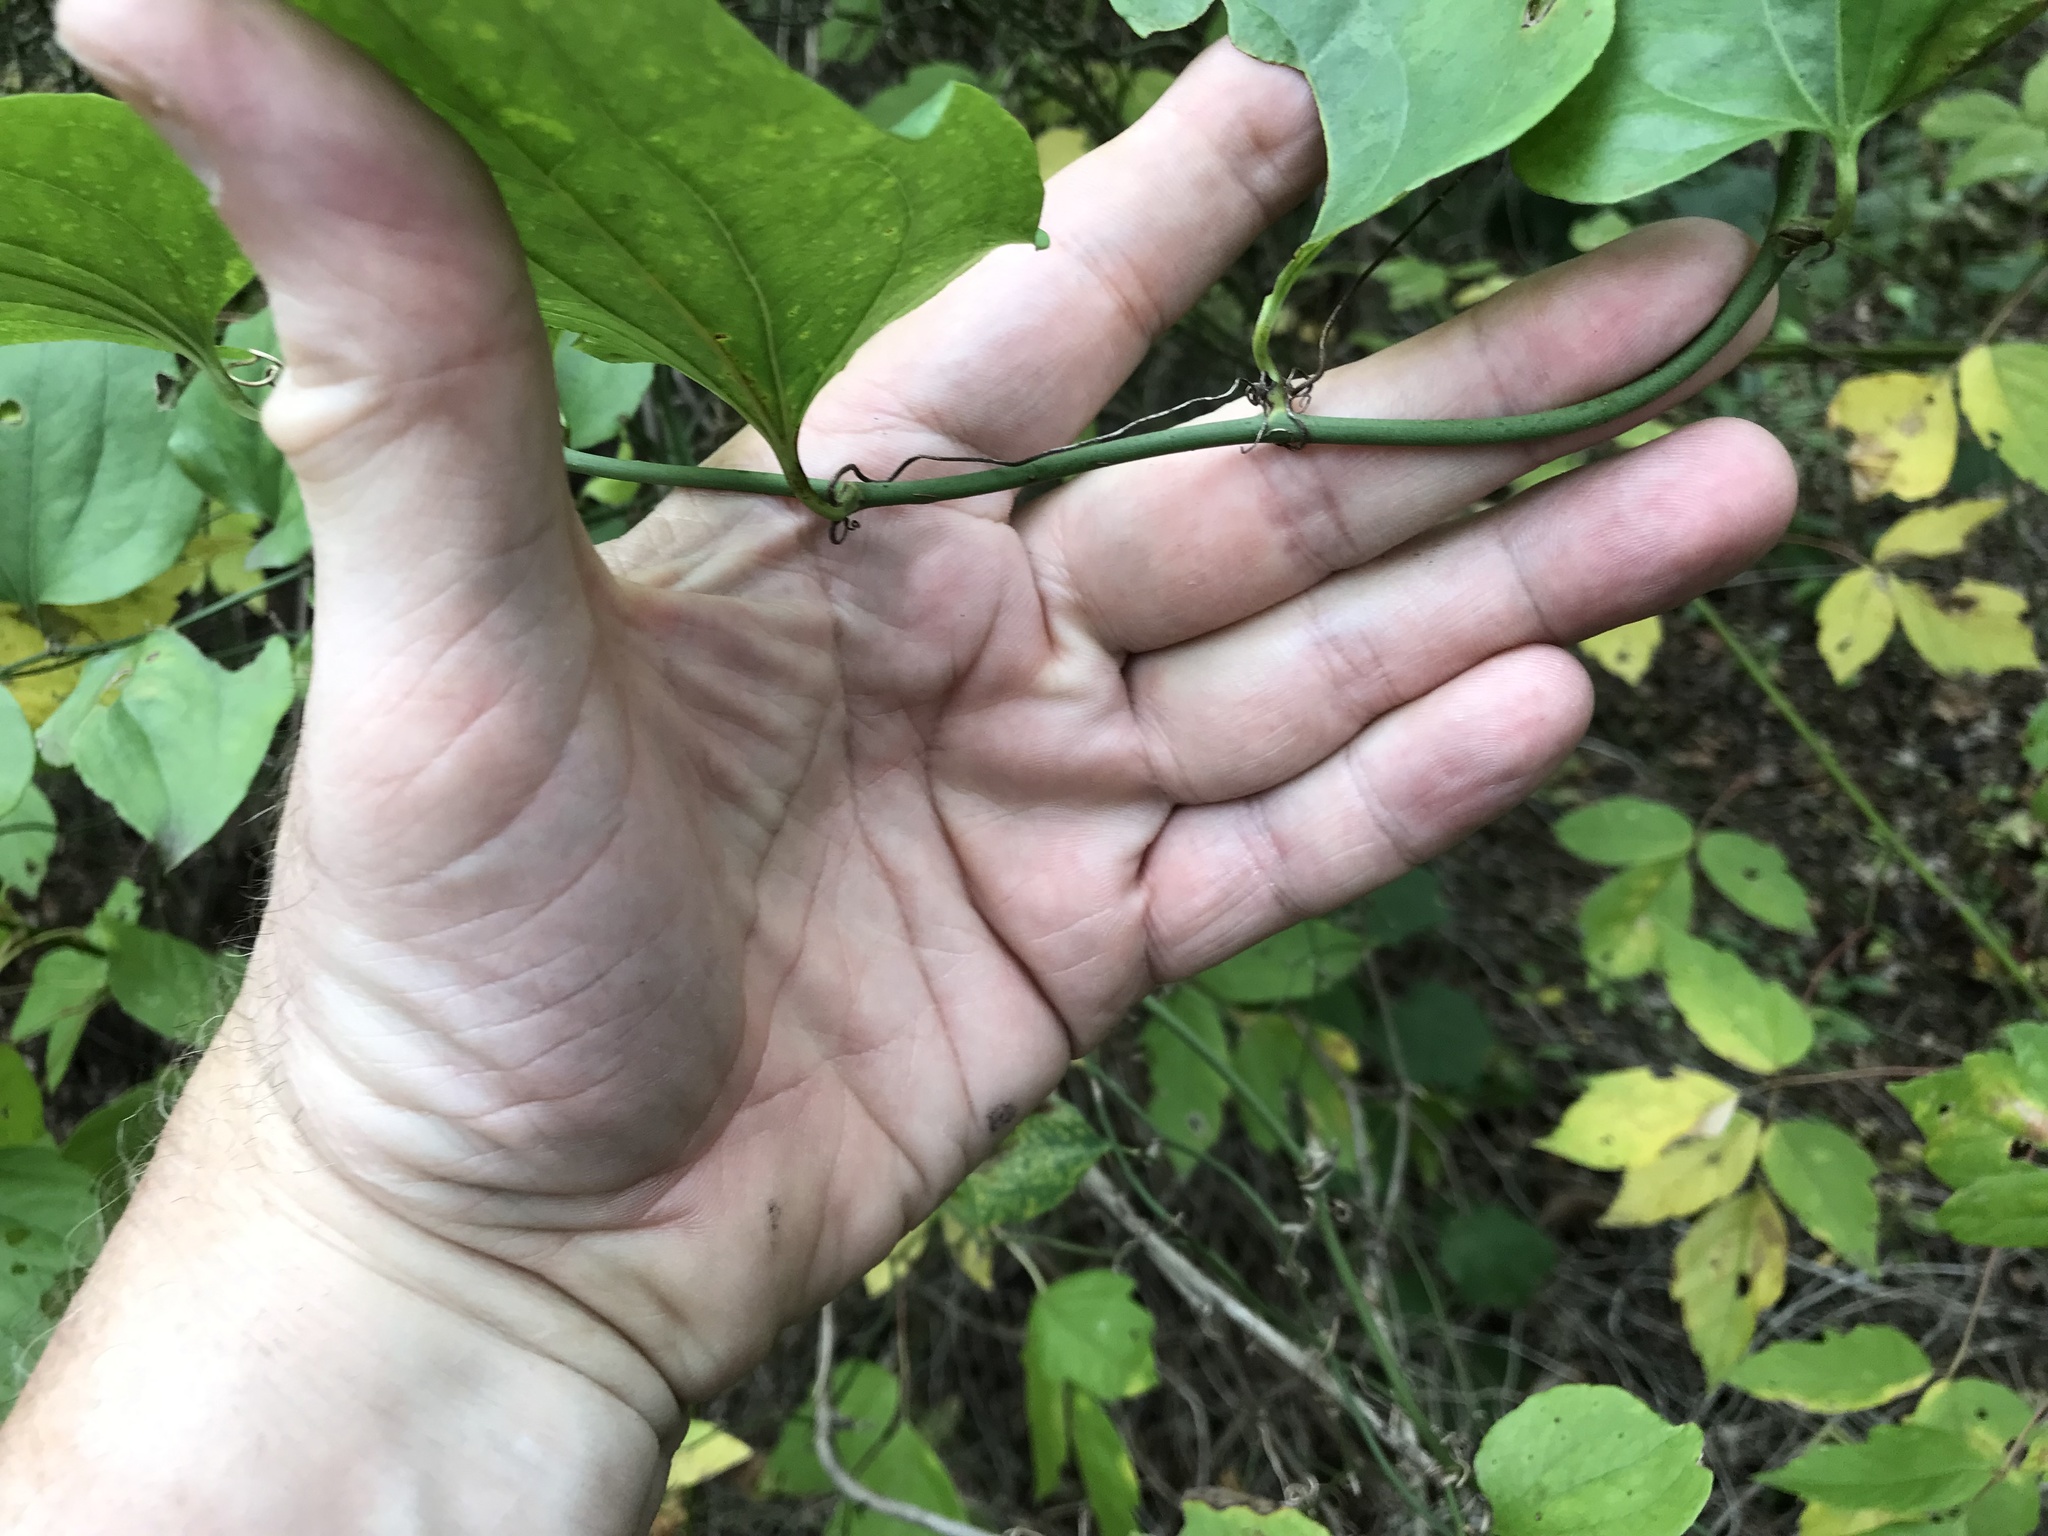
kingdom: Plantae
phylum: Tracheophyta
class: Liliopsida
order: Liliales
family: Smilacaceae
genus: Smilax
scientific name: Smilax tamnoides
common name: Hellfetter
